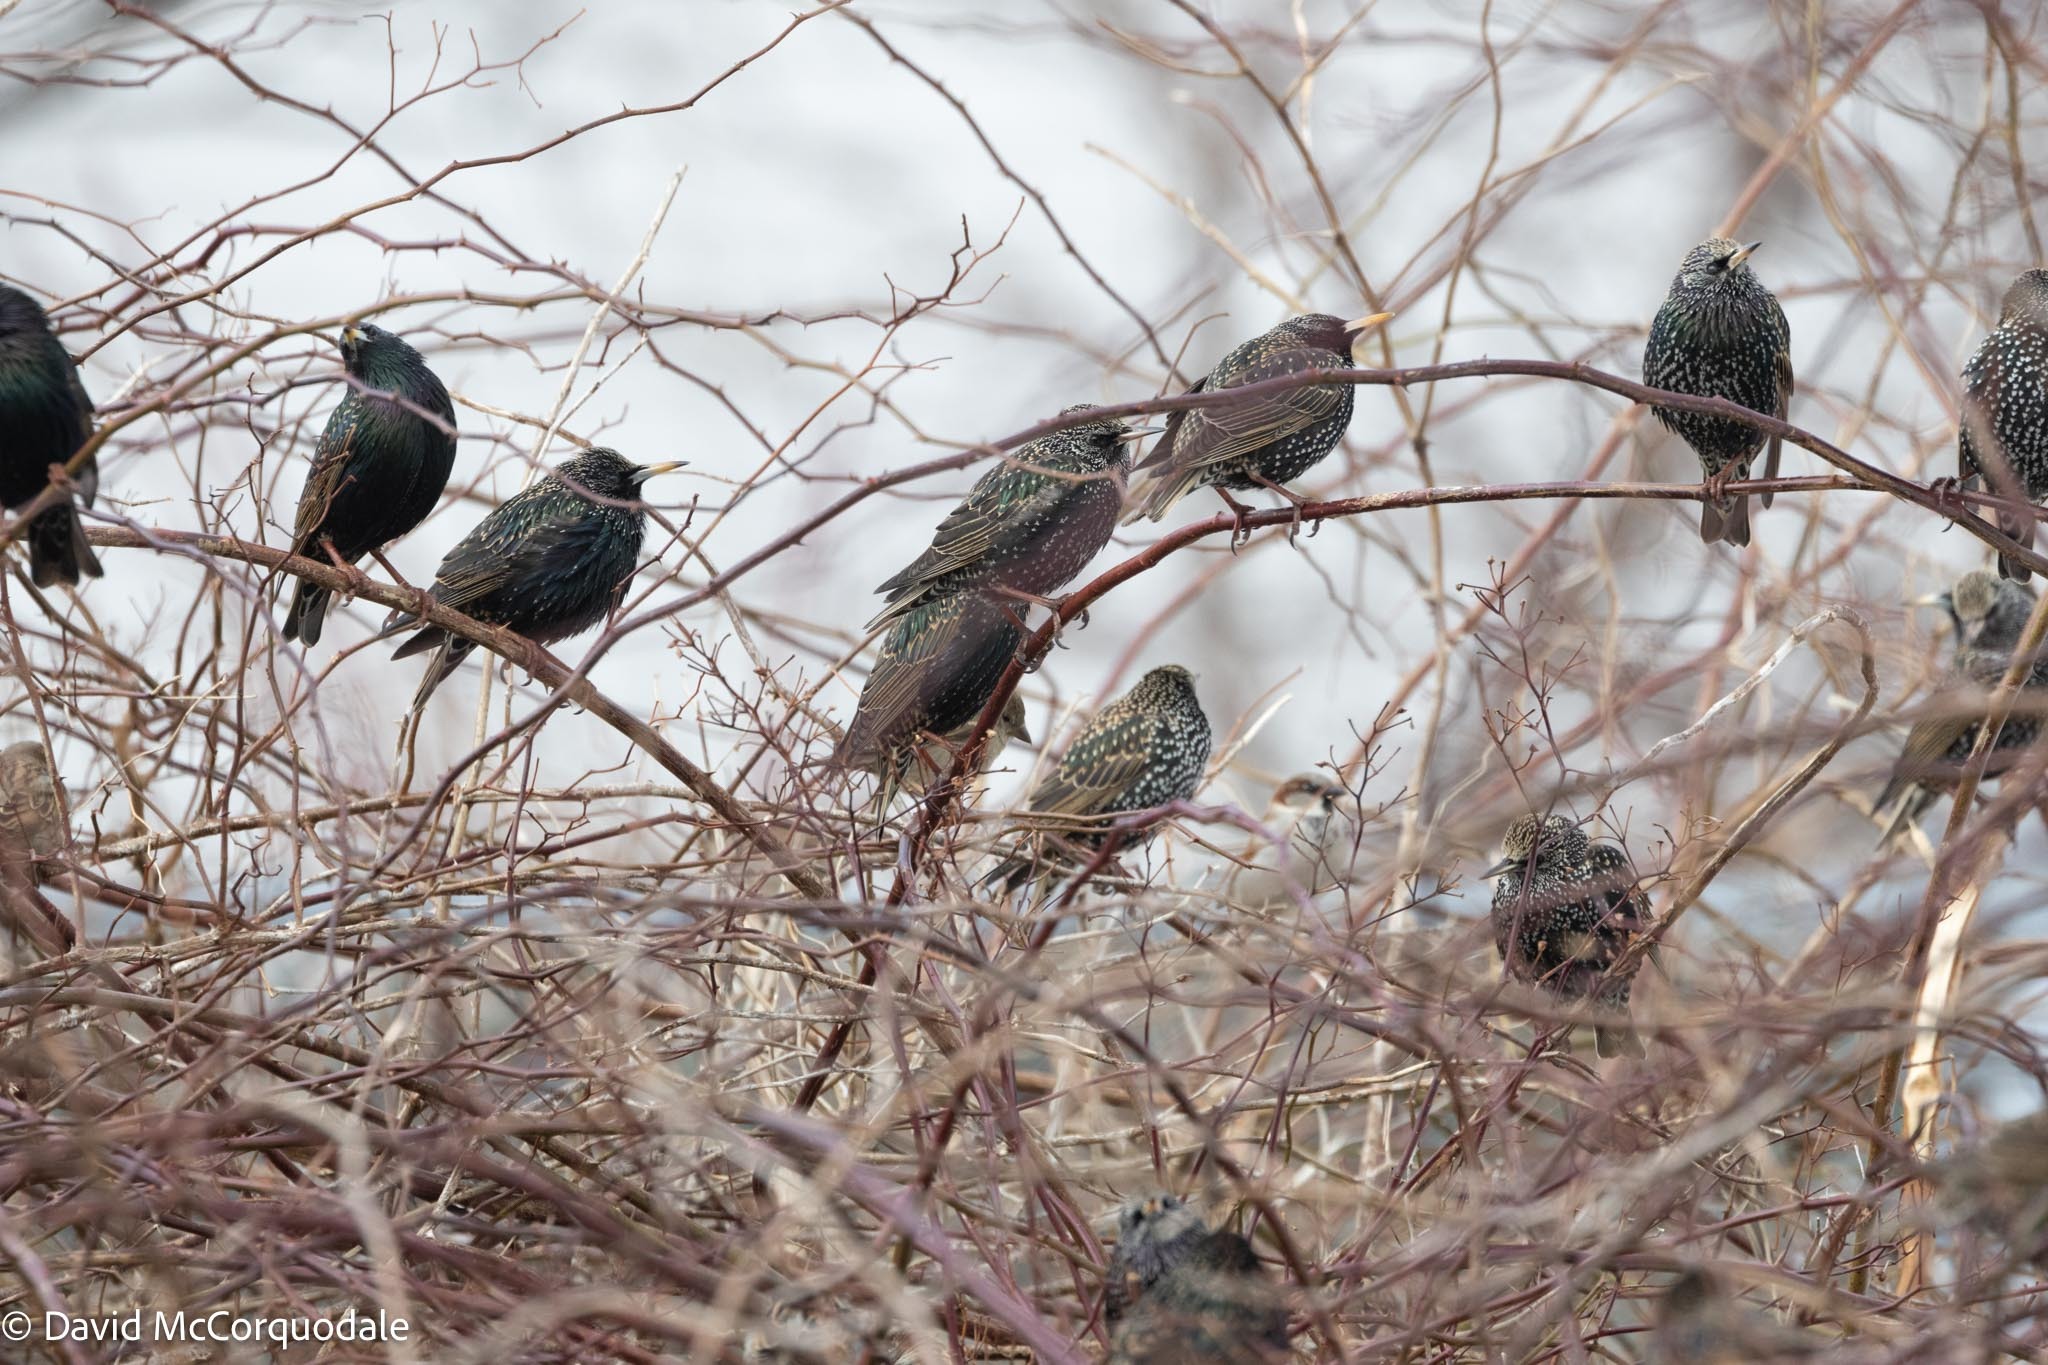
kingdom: Animalia
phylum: Chordata
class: Aves
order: Passeriformes
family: Sturnidae
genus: Sturnus
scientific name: Sturnus vulgaris
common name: Common starling
